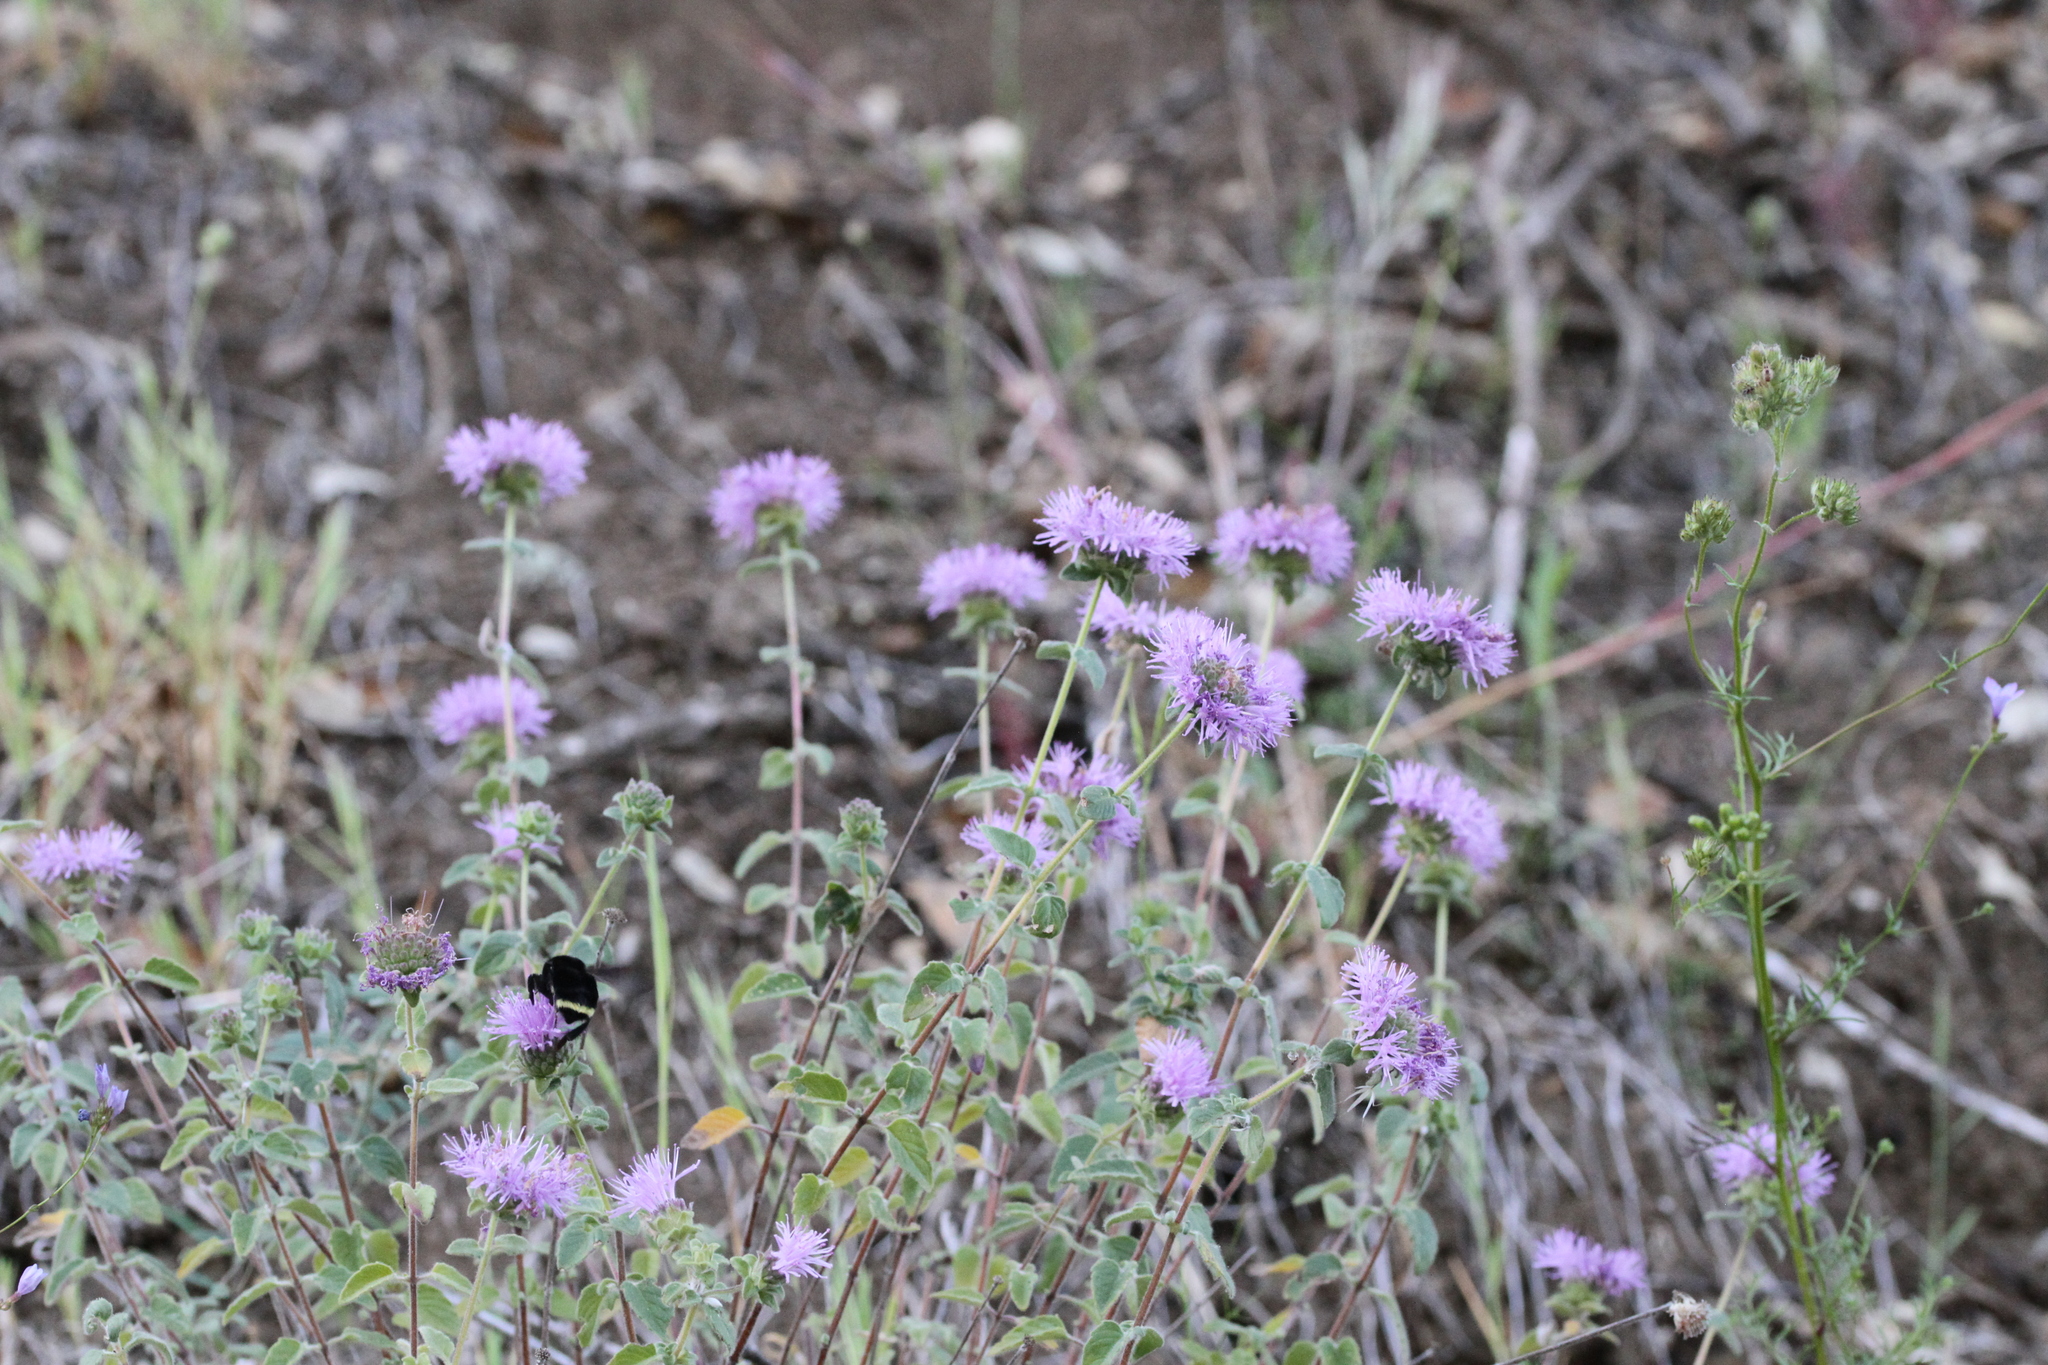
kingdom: Plantae
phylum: Tracheophyta
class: Magnoliopsida
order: Lamiales
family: Lamiaceae
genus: Monardella
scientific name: Monardella odoratissima
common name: Pacific monardella
